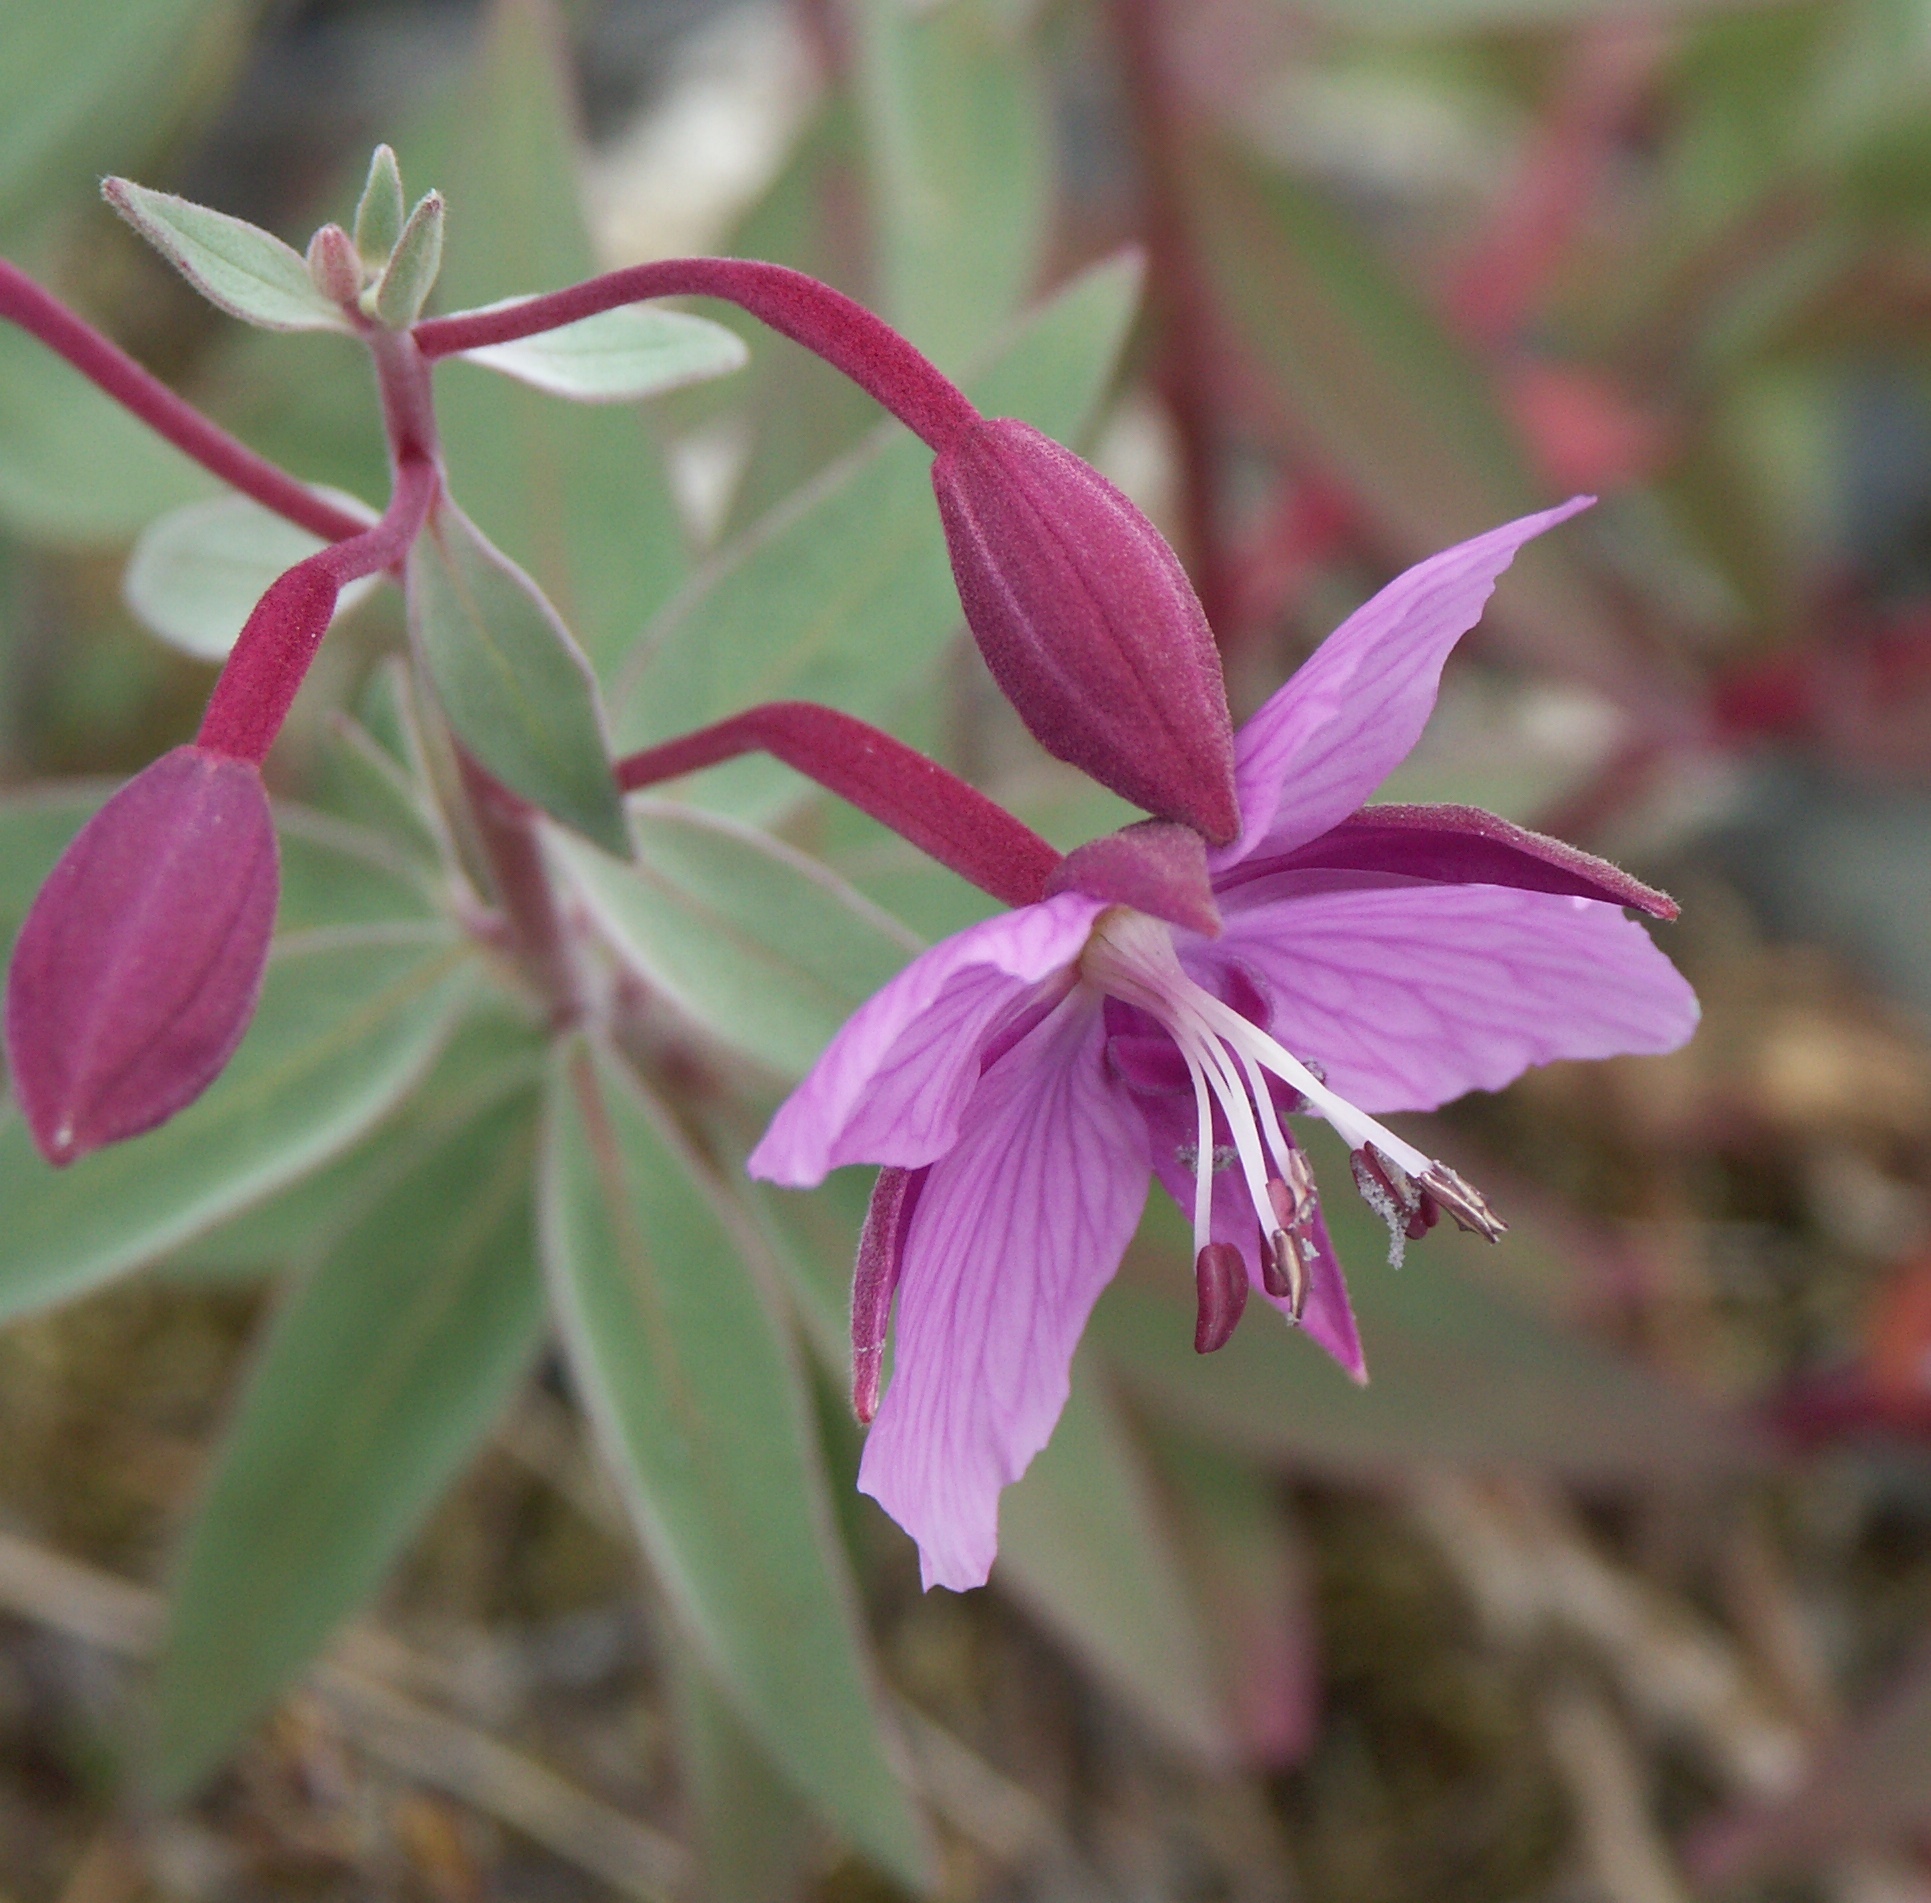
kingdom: Plantae
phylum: Tracheophyta
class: Magnoliopsida
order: Myrtales
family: Onagraceae
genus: Chamaenerion
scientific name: Chamaenerion latifolium
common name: Dwarf fireweed
